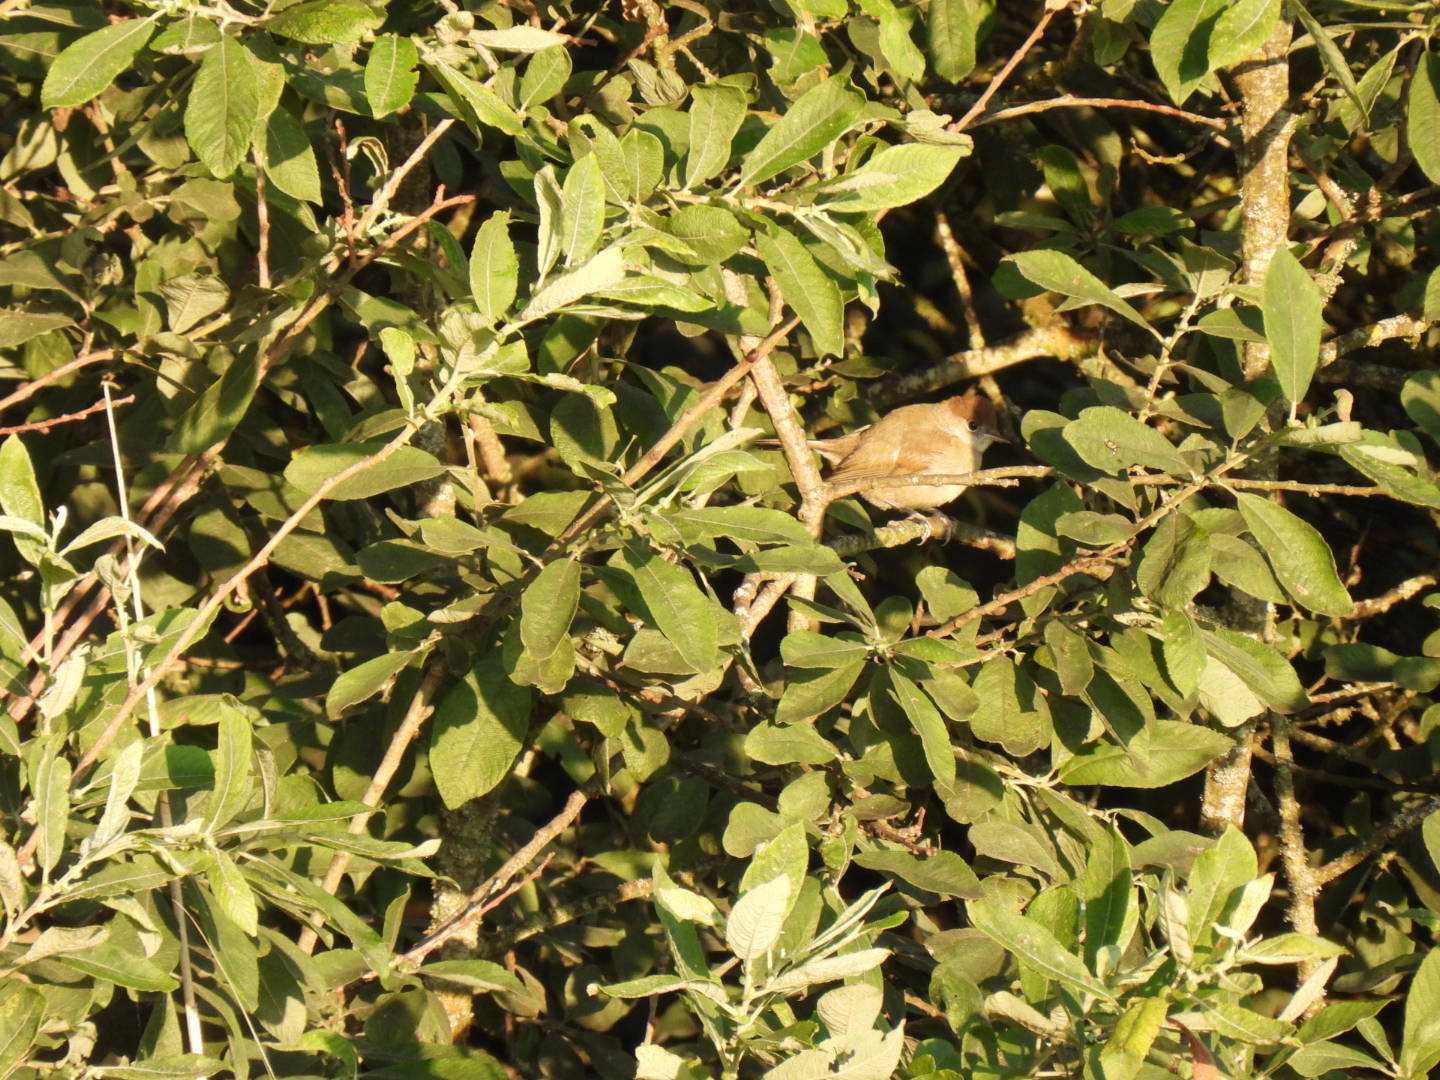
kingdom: Animalia
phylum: Chordata
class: Aves
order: Passeriformes
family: Sylviidae
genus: Sylvia
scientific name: Sylvia atricapilla
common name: Eurasian blackcap
